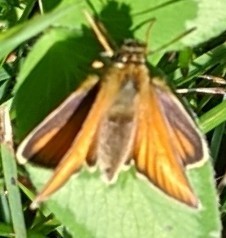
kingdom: Animalia
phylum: Arthropoda
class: Insecta
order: Lepidoptera
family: Hesperiidae
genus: Thymelicus
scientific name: Thymelicus lineola
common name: Essex skipper
